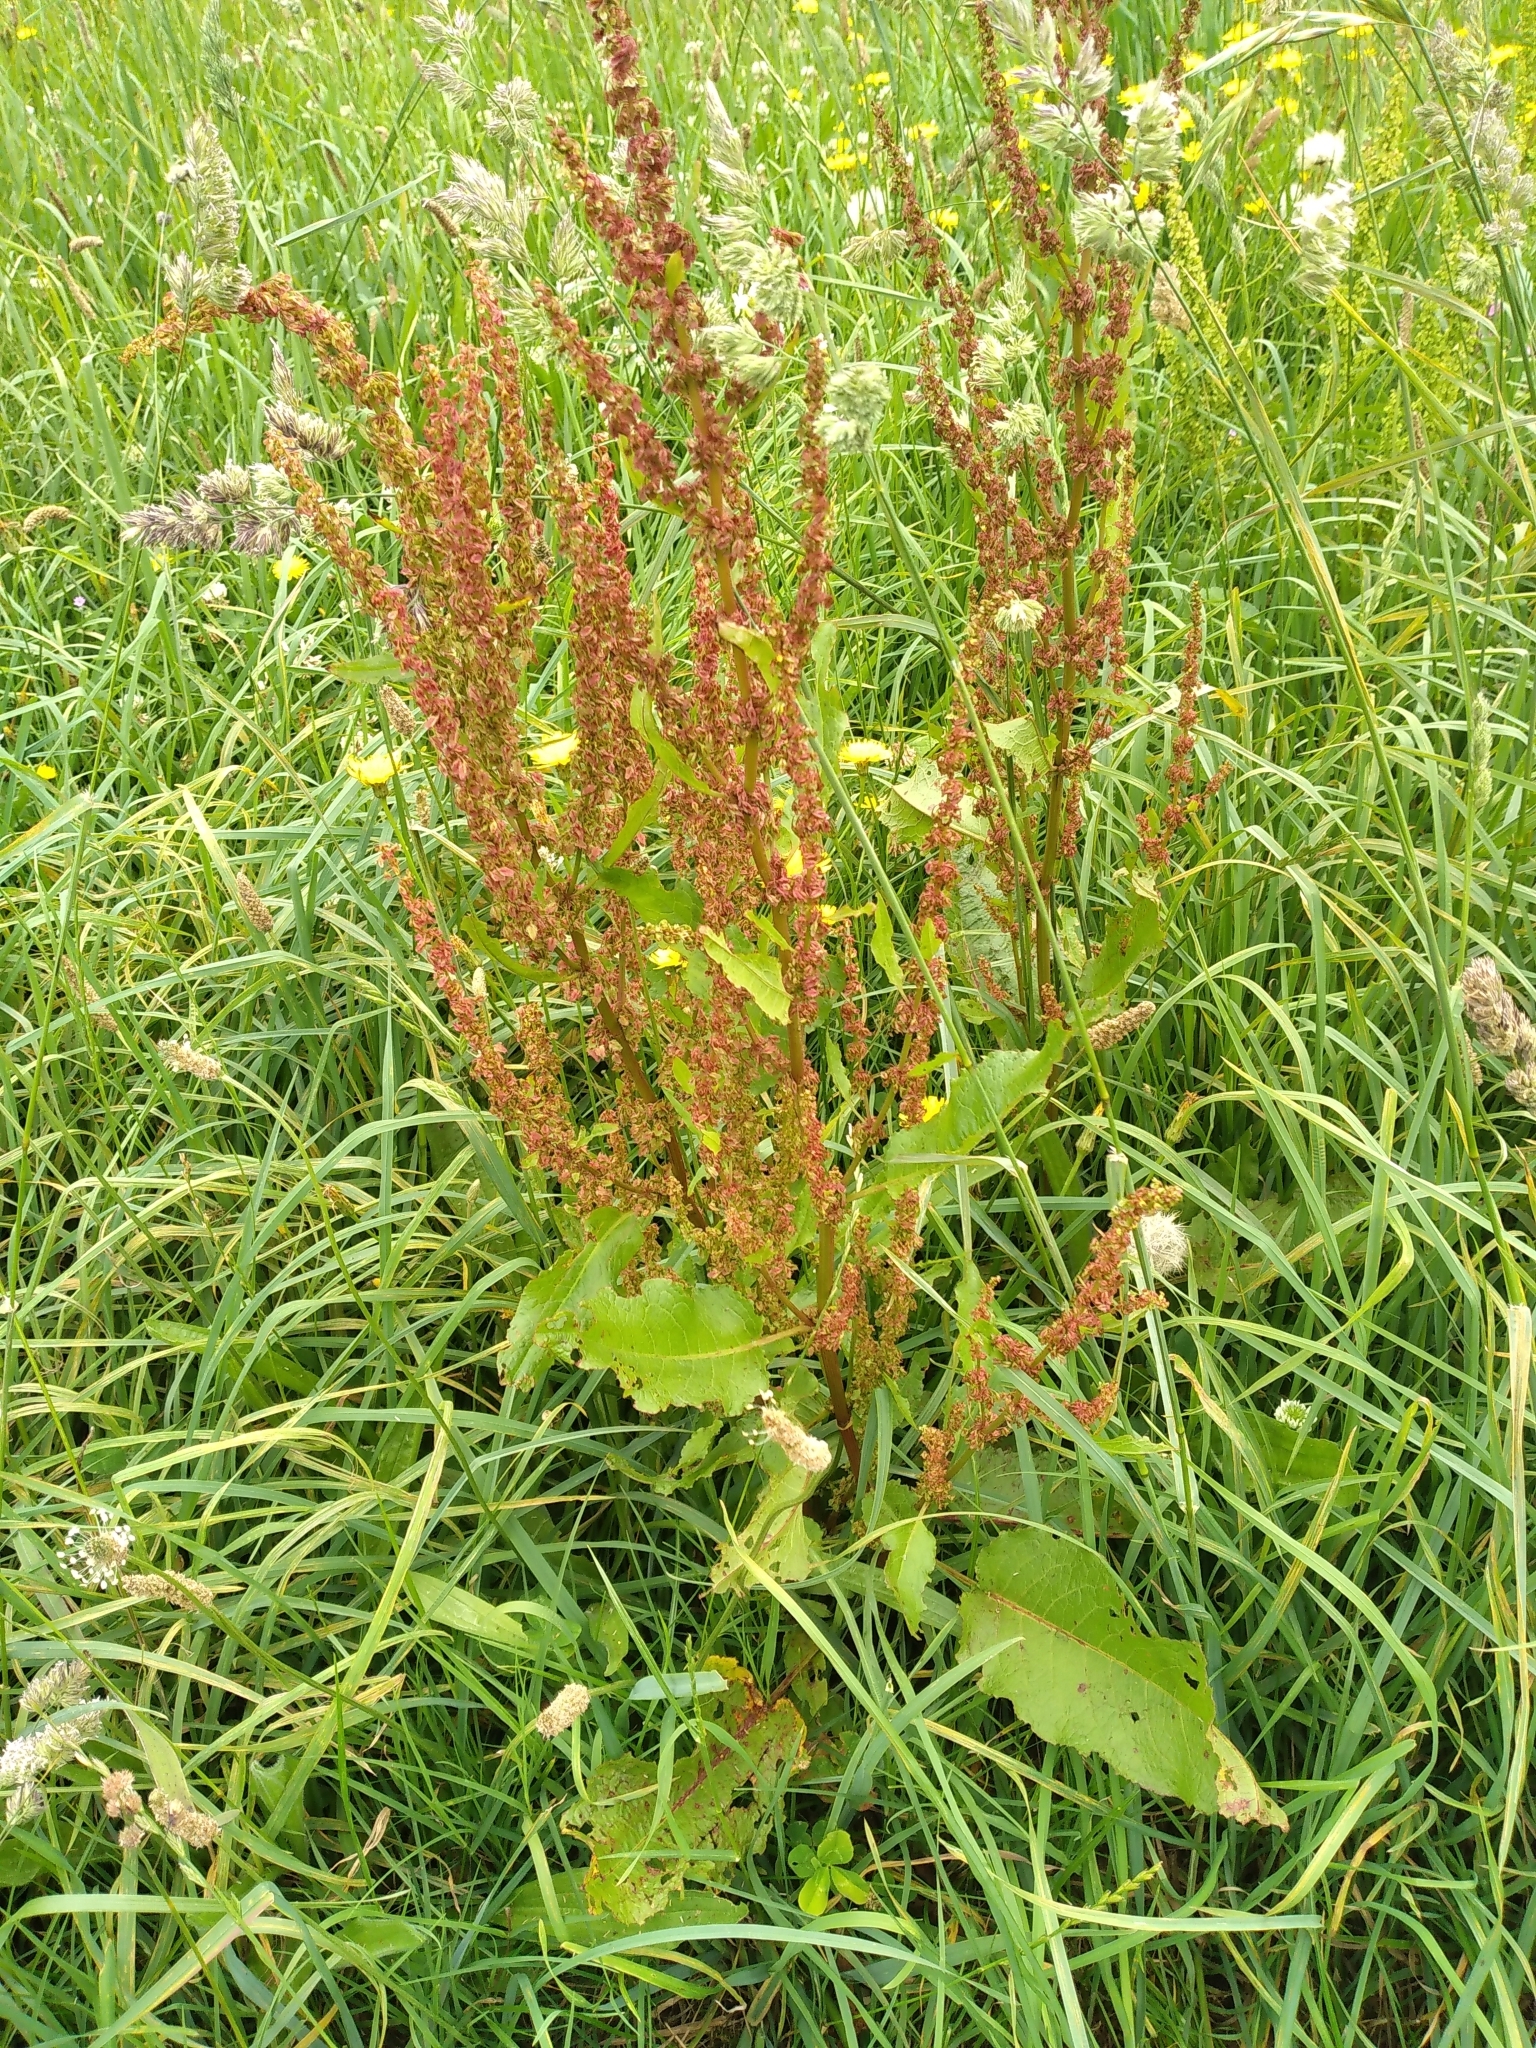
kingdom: Plantae
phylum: Tracheophyta
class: Magnoliopsida
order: Caryophyllales
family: Polygonaceae
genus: Rumex
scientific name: Rumex obtusifolius
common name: Bitter dock
